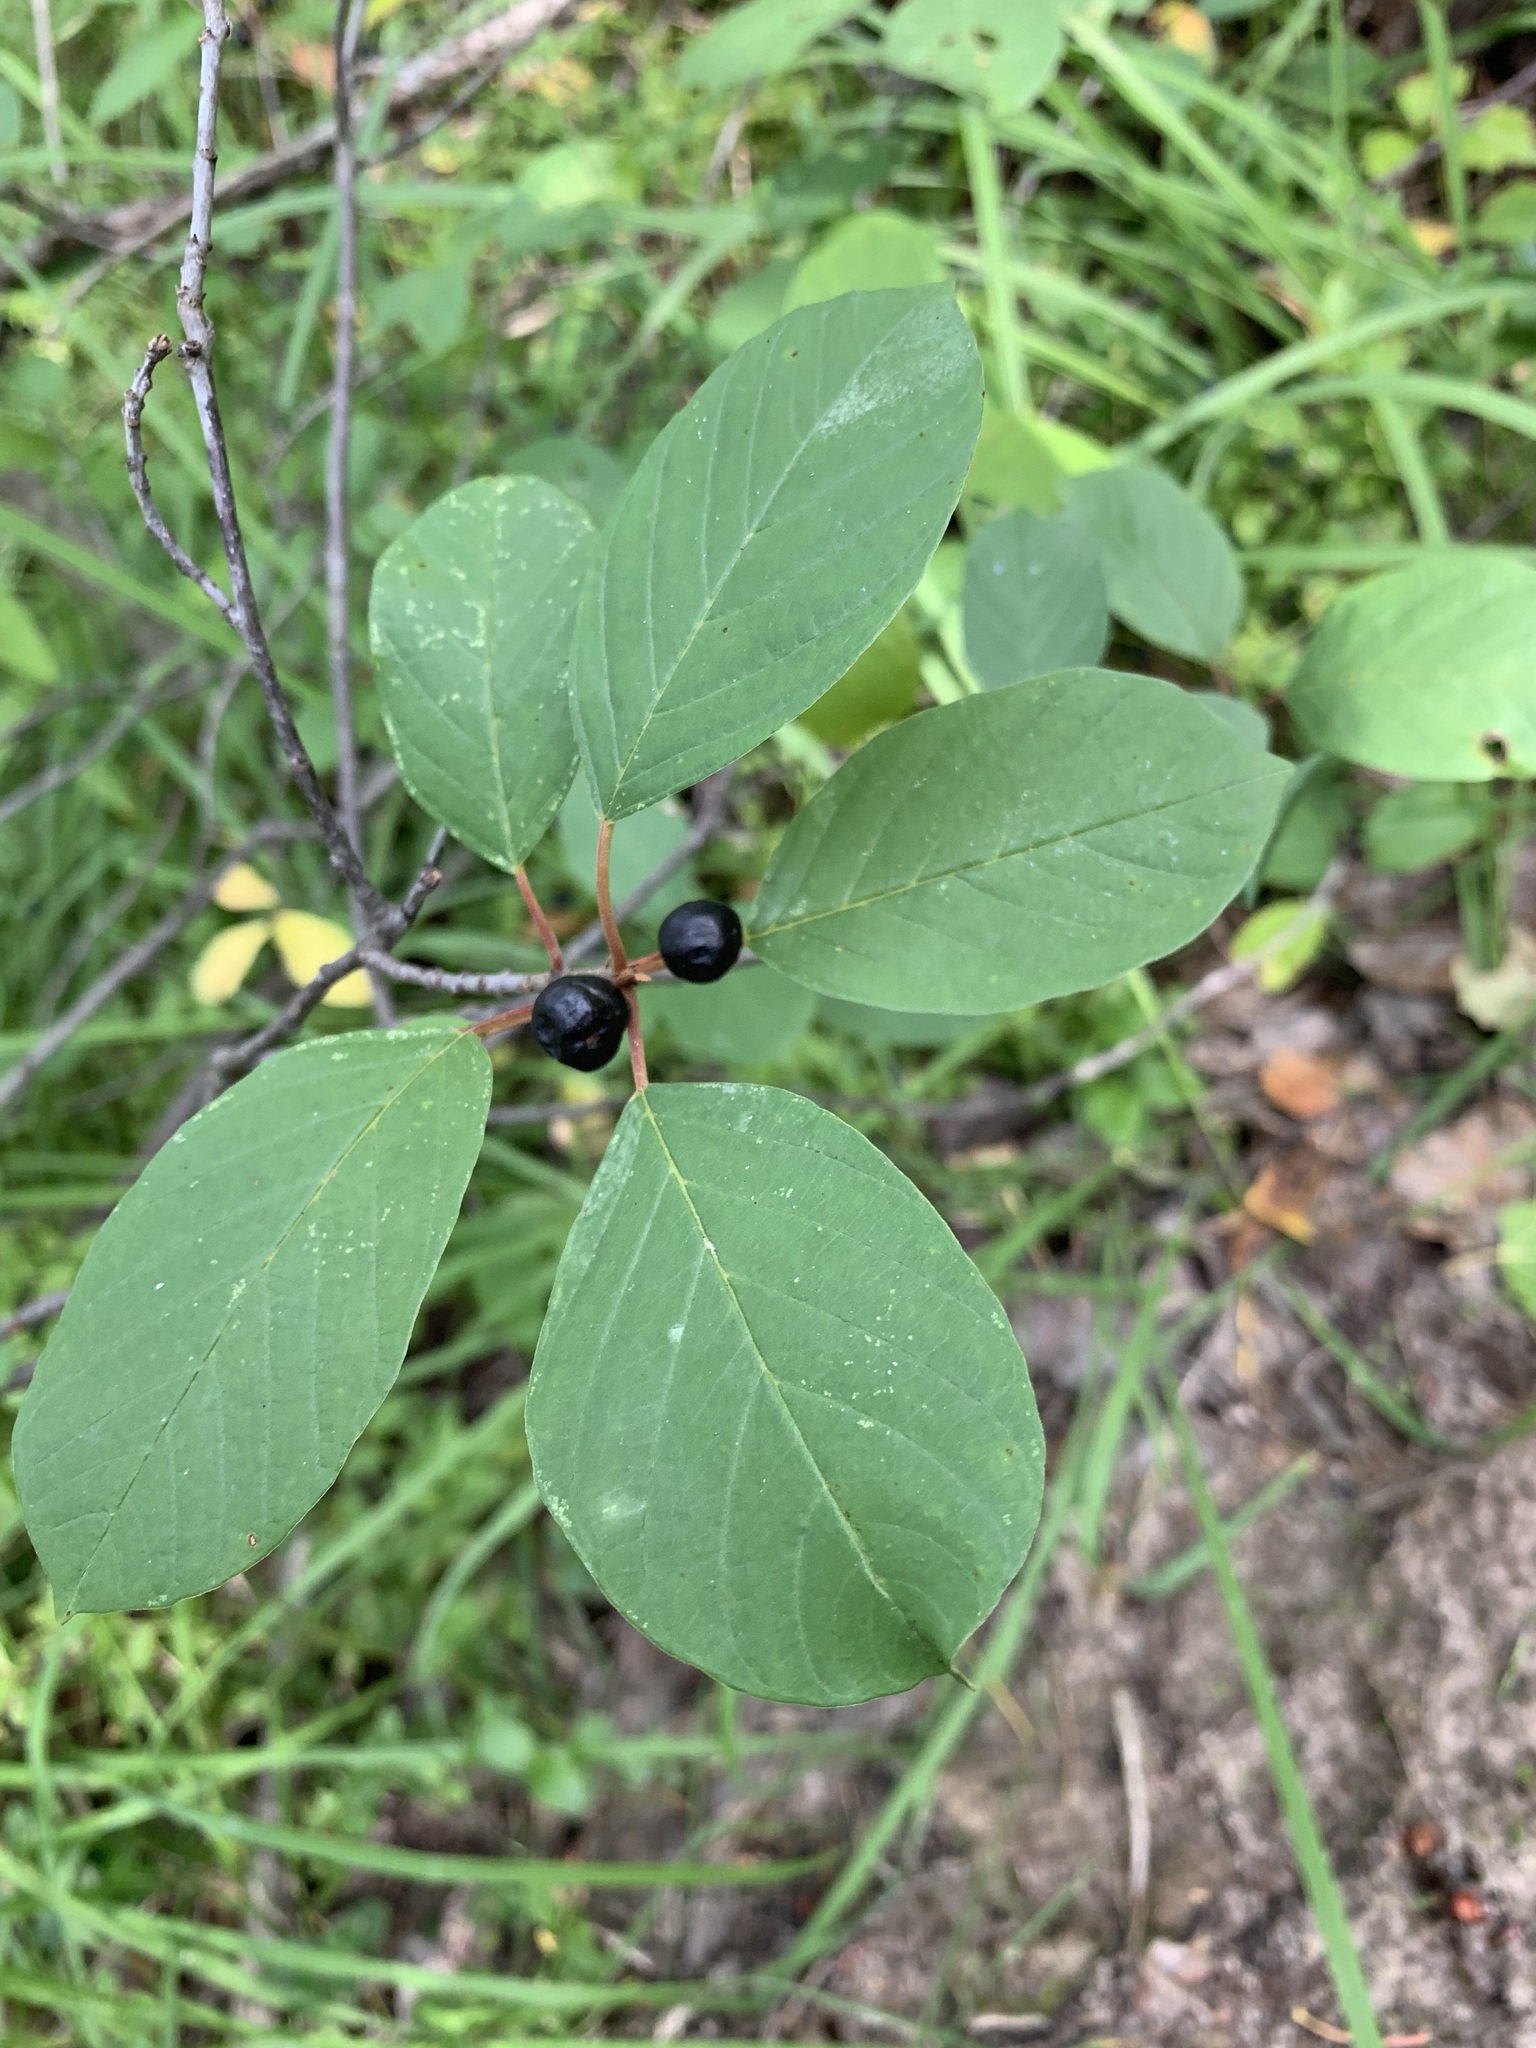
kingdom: Plantae
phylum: Tracheophyta
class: Magnoliopsida
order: Rosales
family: Rhamnaceae
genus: Frangula
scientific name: Frangula alnus
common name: Alder buckthorn
